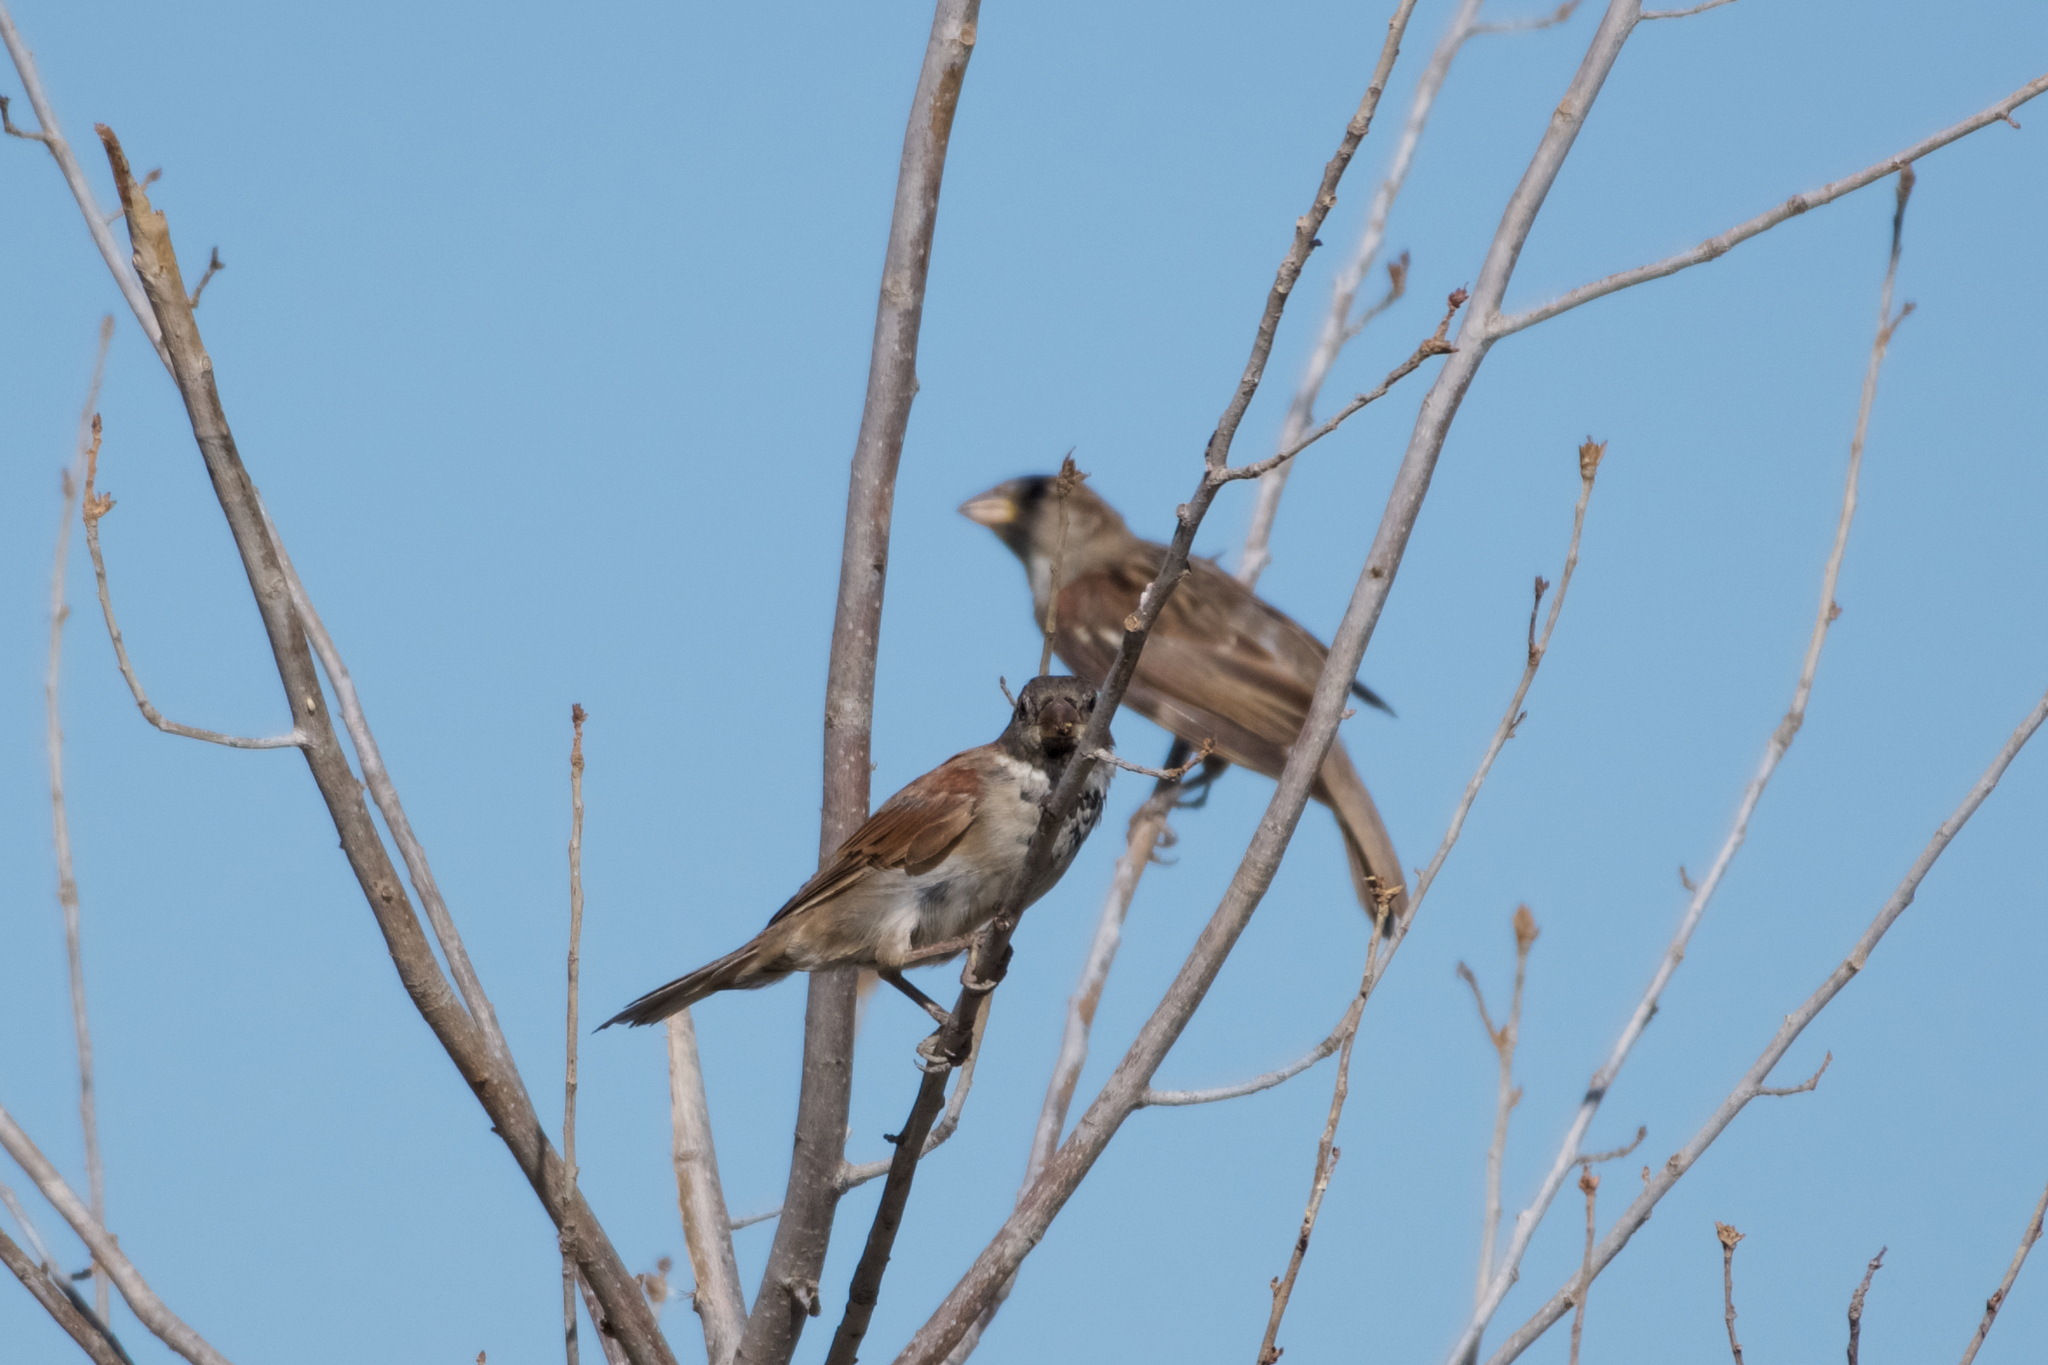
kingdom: Animalia
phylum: Chordata
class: Aves
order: Passeriformes
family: Passeridae
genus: Passer
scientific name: Passer domesticus
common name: House sparrow
